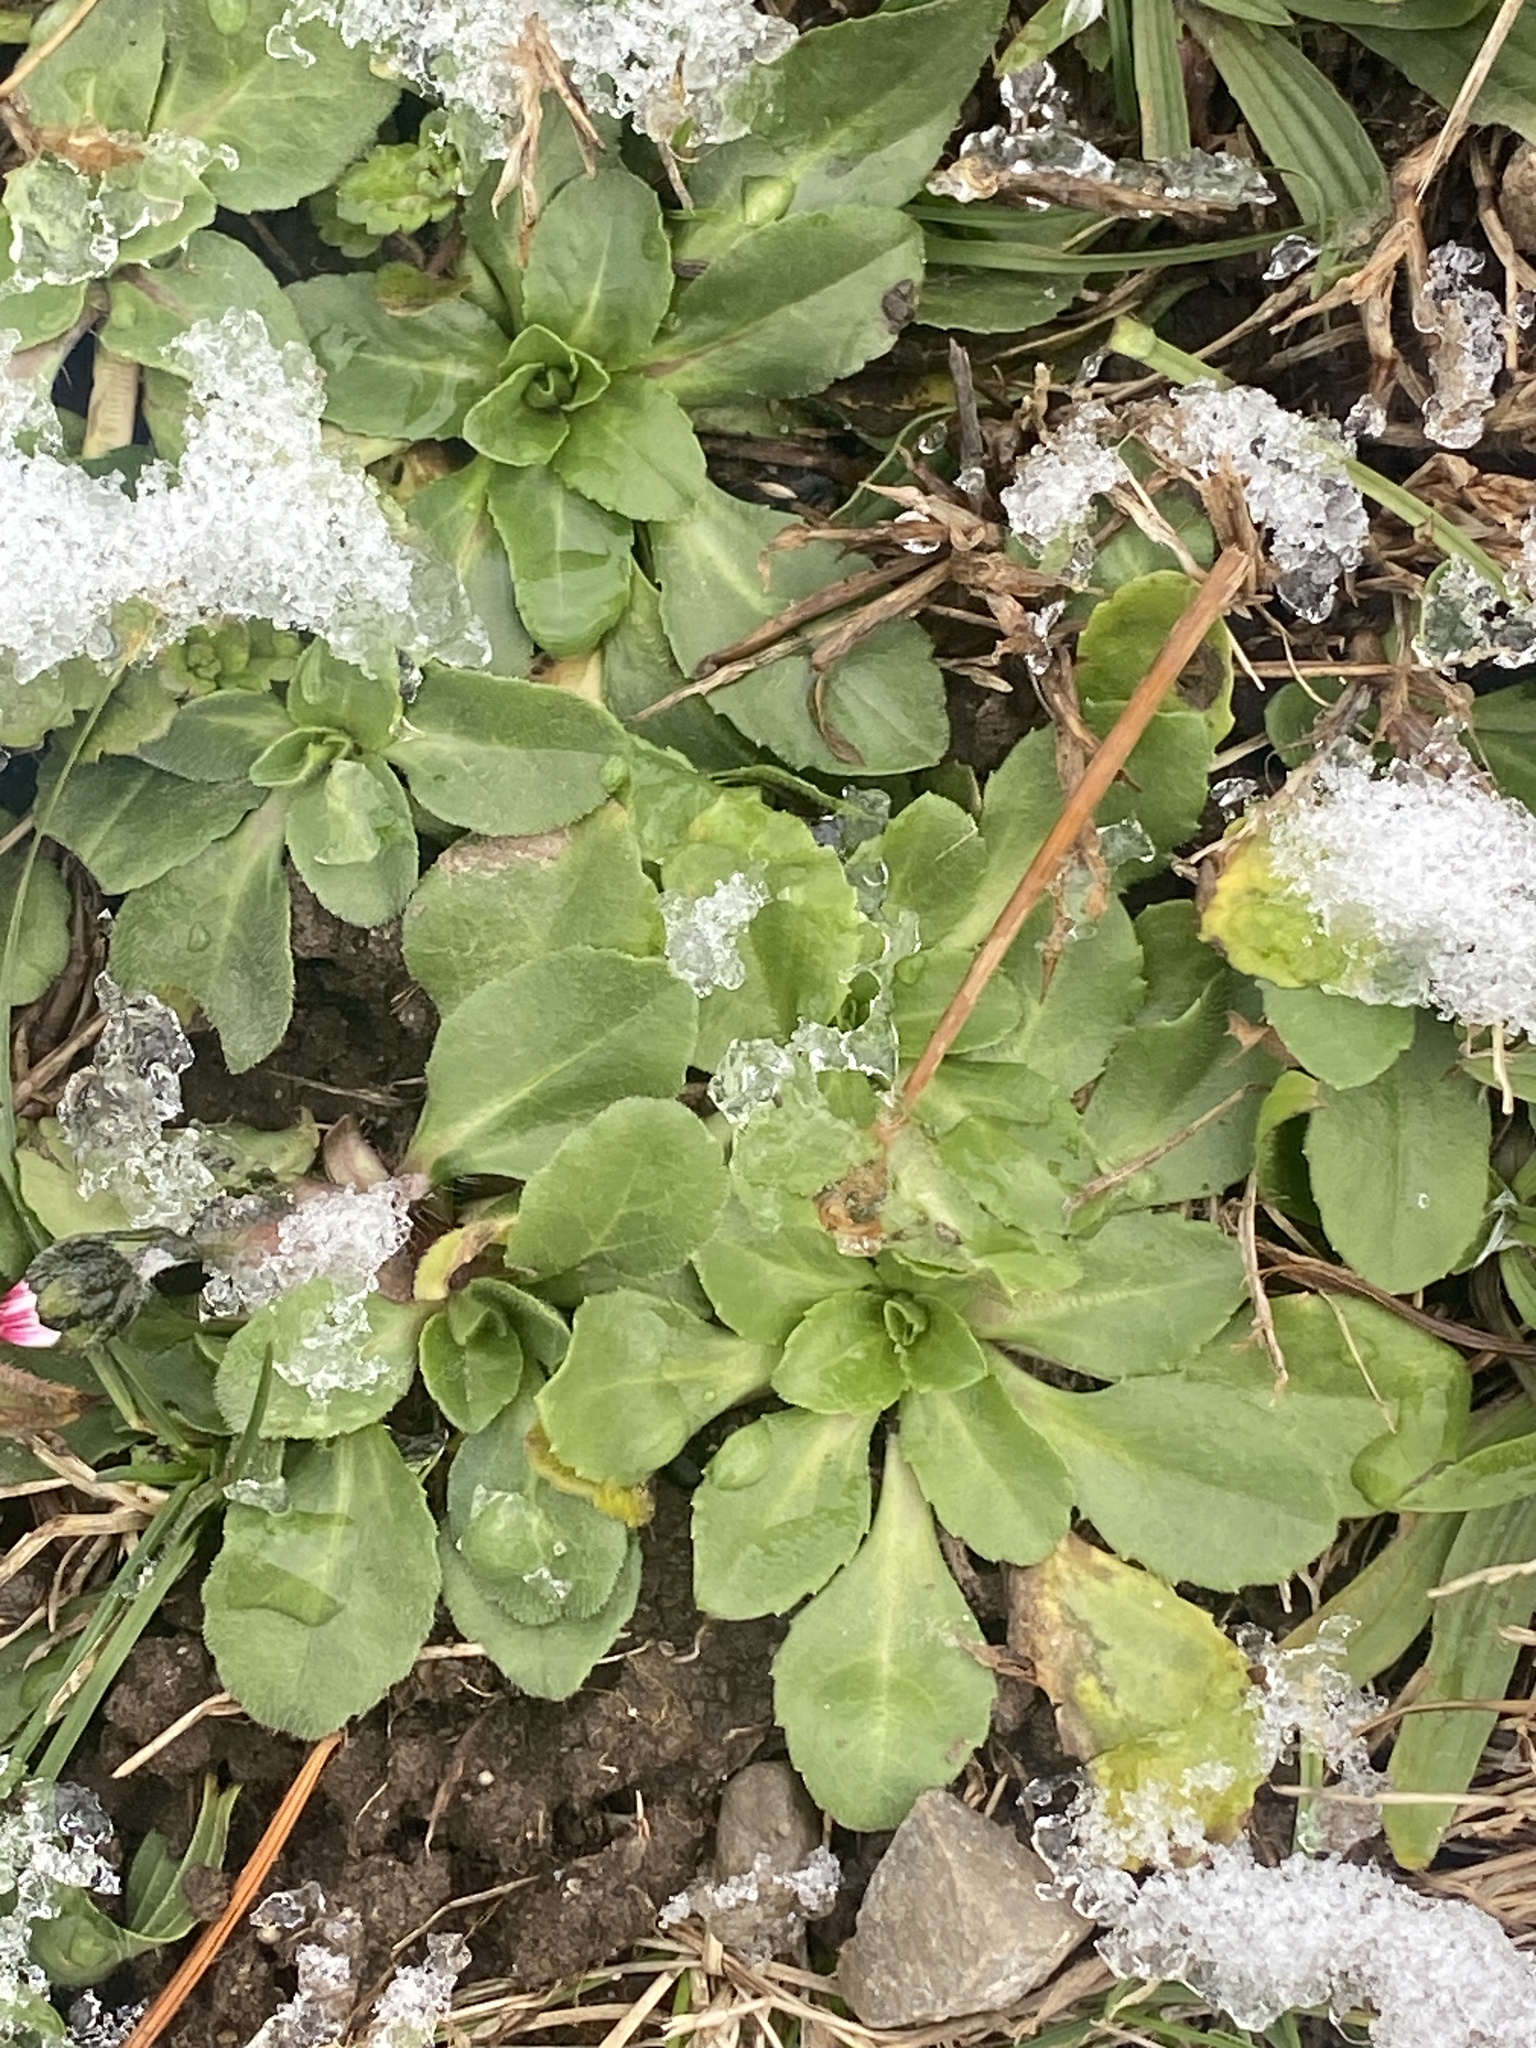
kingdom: Plantae
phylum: Tracheophyta
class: Magnoliopsida
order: Asterales
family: Asteraceae
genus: Bellis
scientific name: Bellis perennis
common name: Lawndaisy
